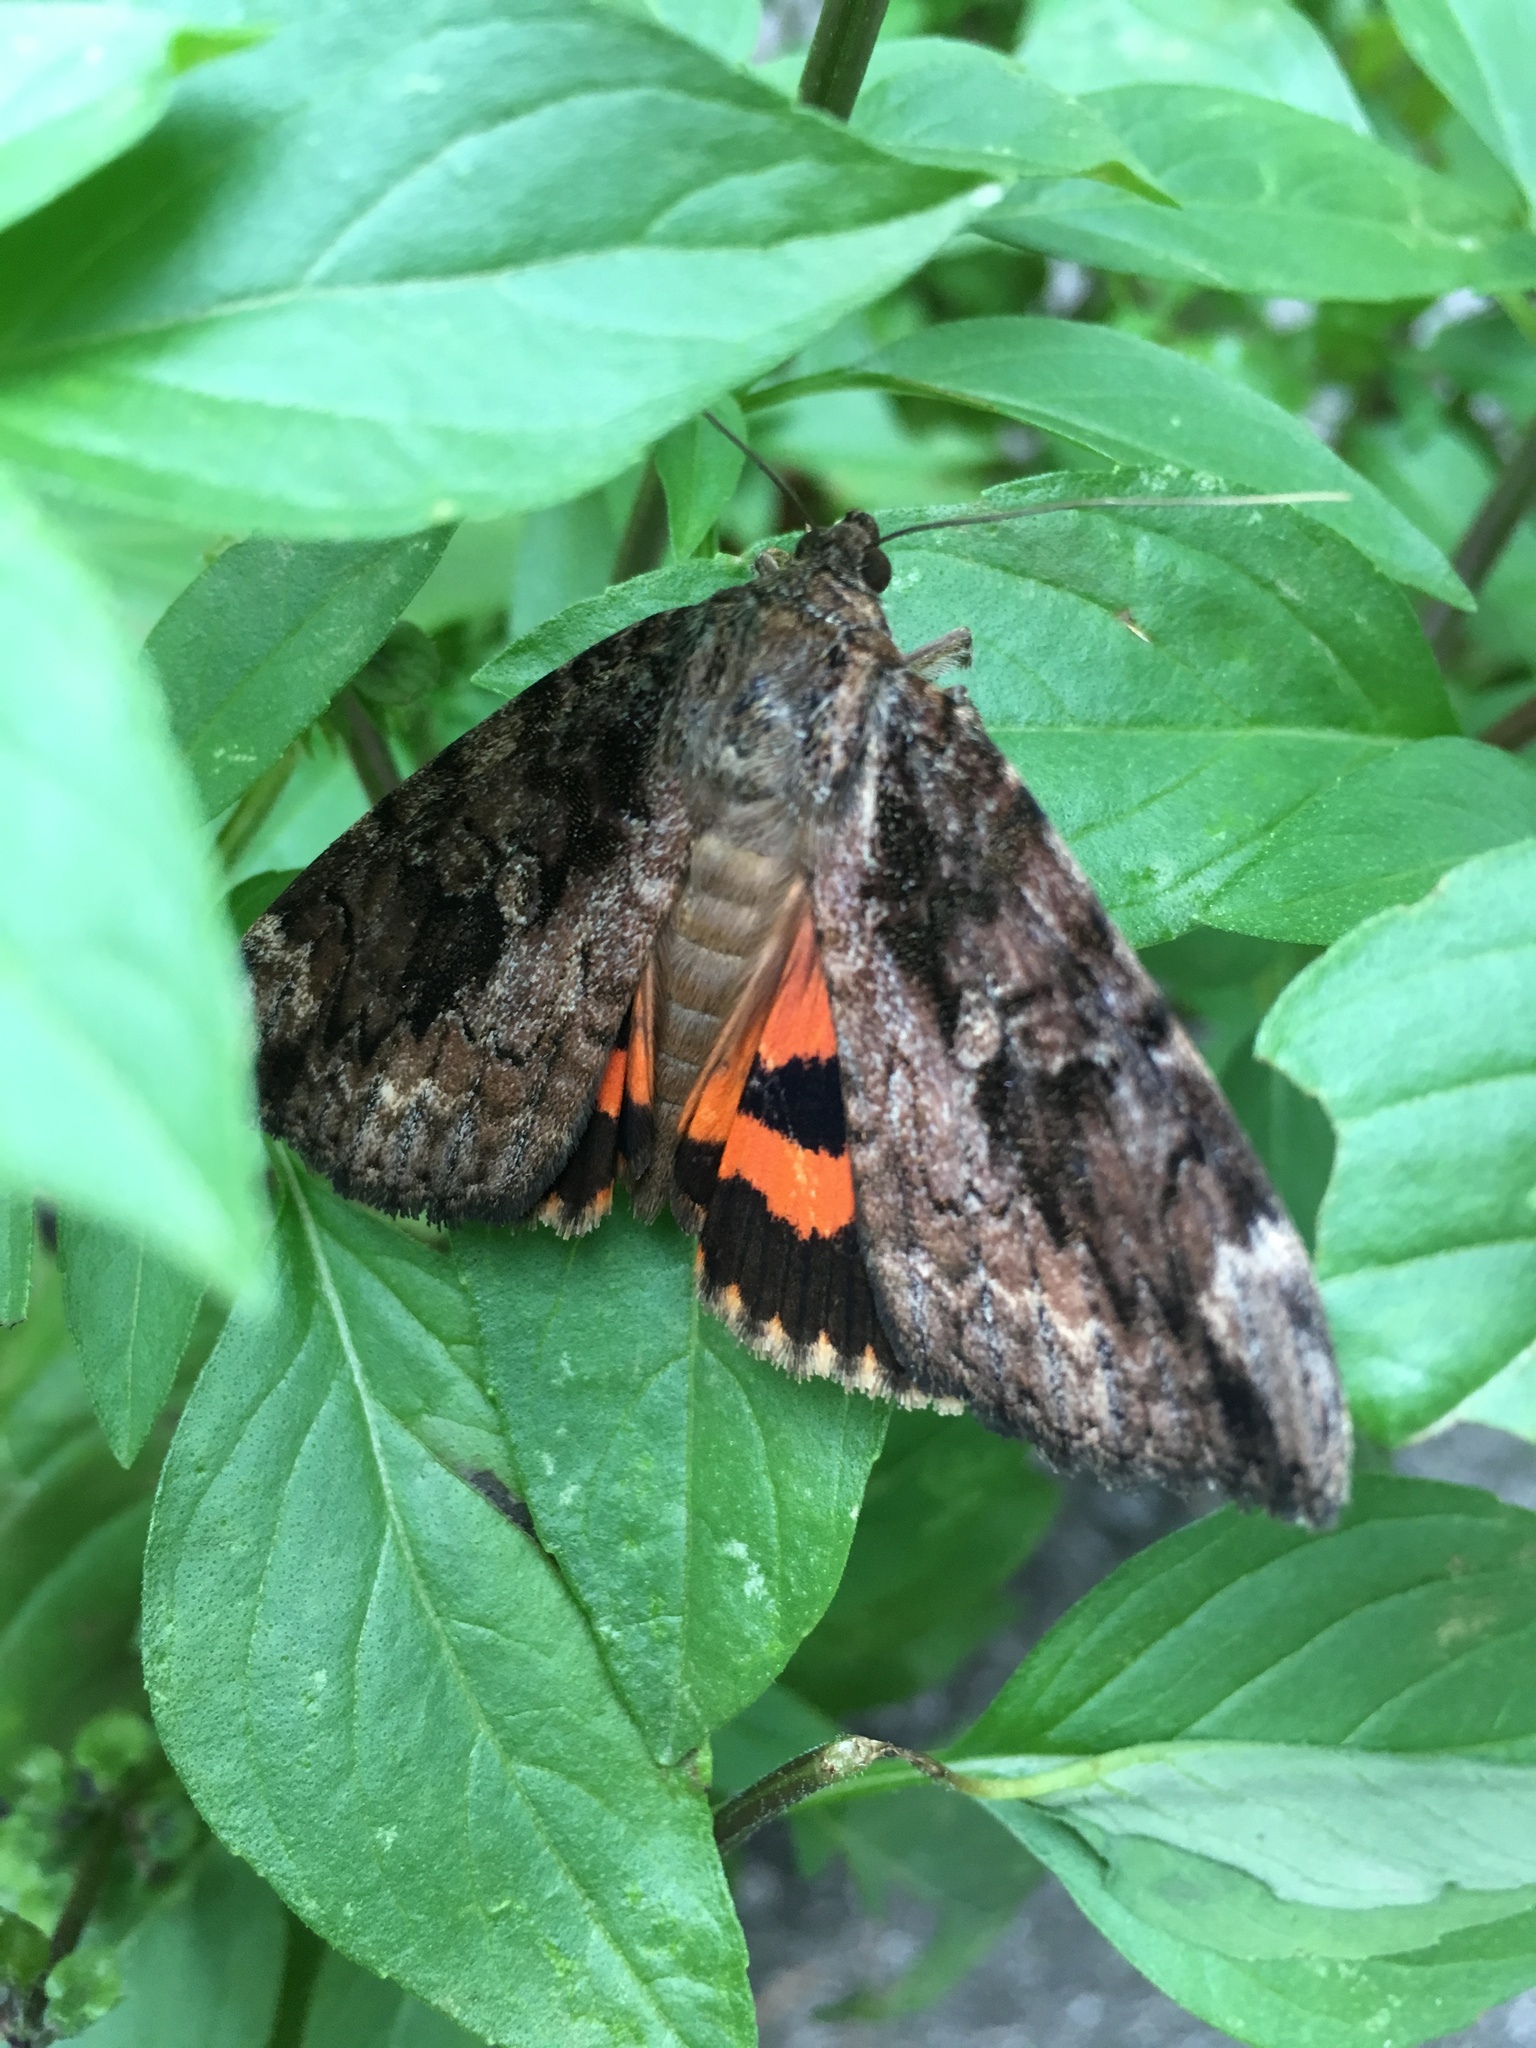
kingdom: Animalia
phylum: Arthropoda
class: Insecta
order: Lepidoptera
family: Erebidae
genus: Catocala
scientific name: Catocala innubens
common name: Betrothed underwing
